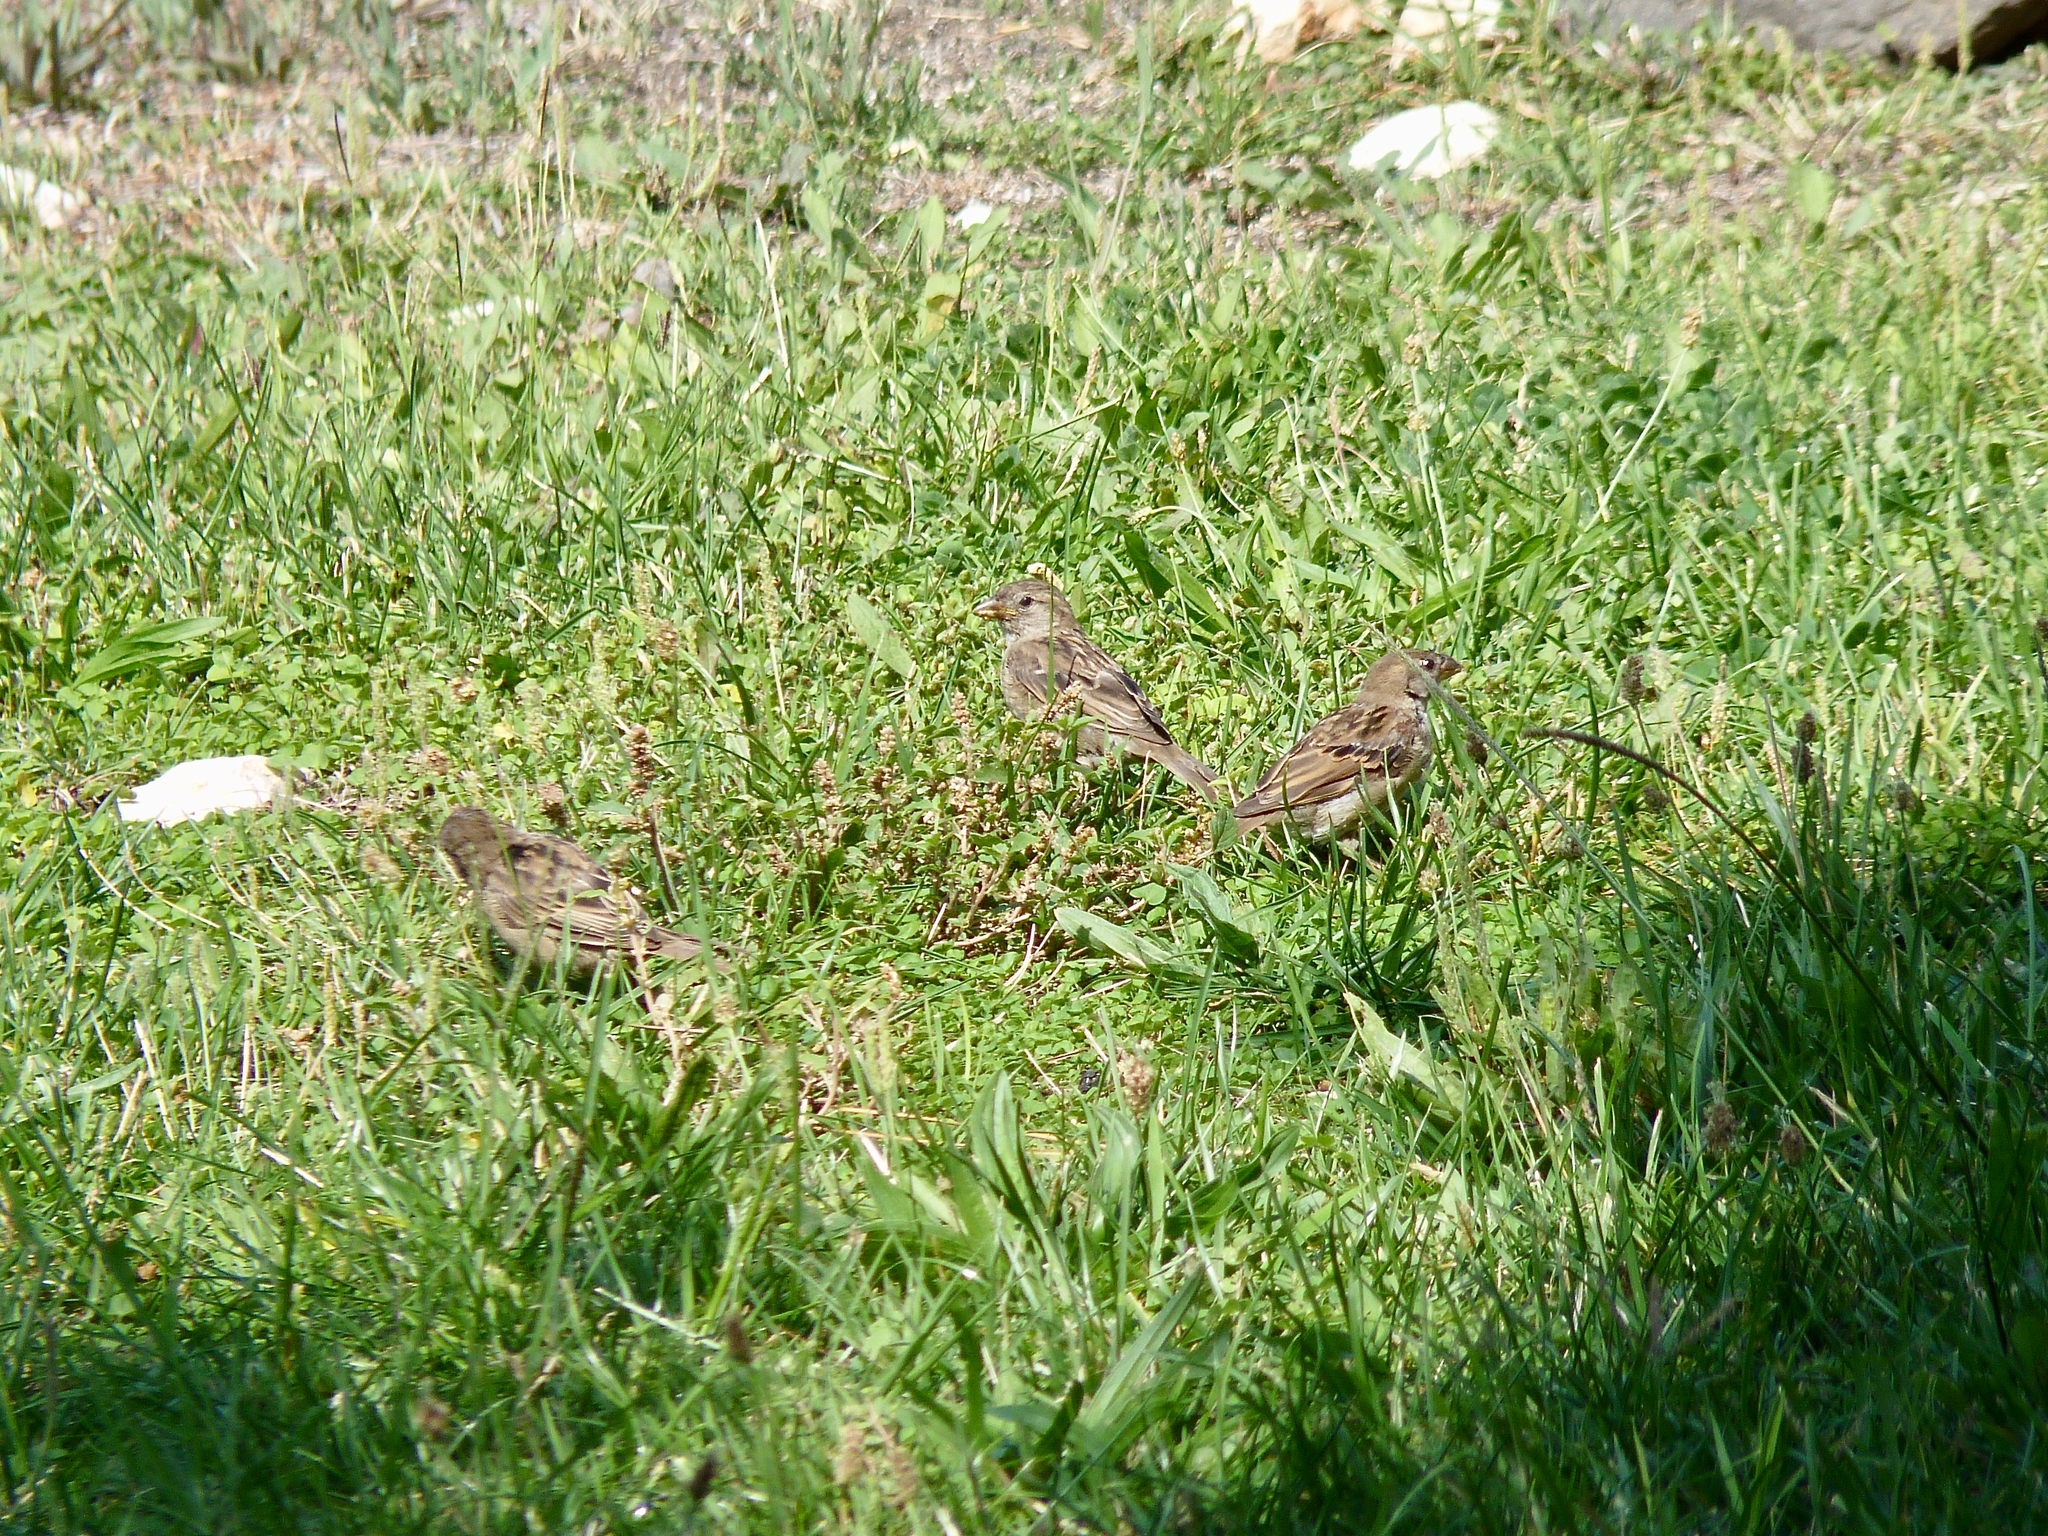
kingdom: Animalia
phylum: Chordata
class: Aves
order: Passeriformes
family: Passeridae
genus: Passer
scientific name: Passer domesticus
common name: House sparrow
